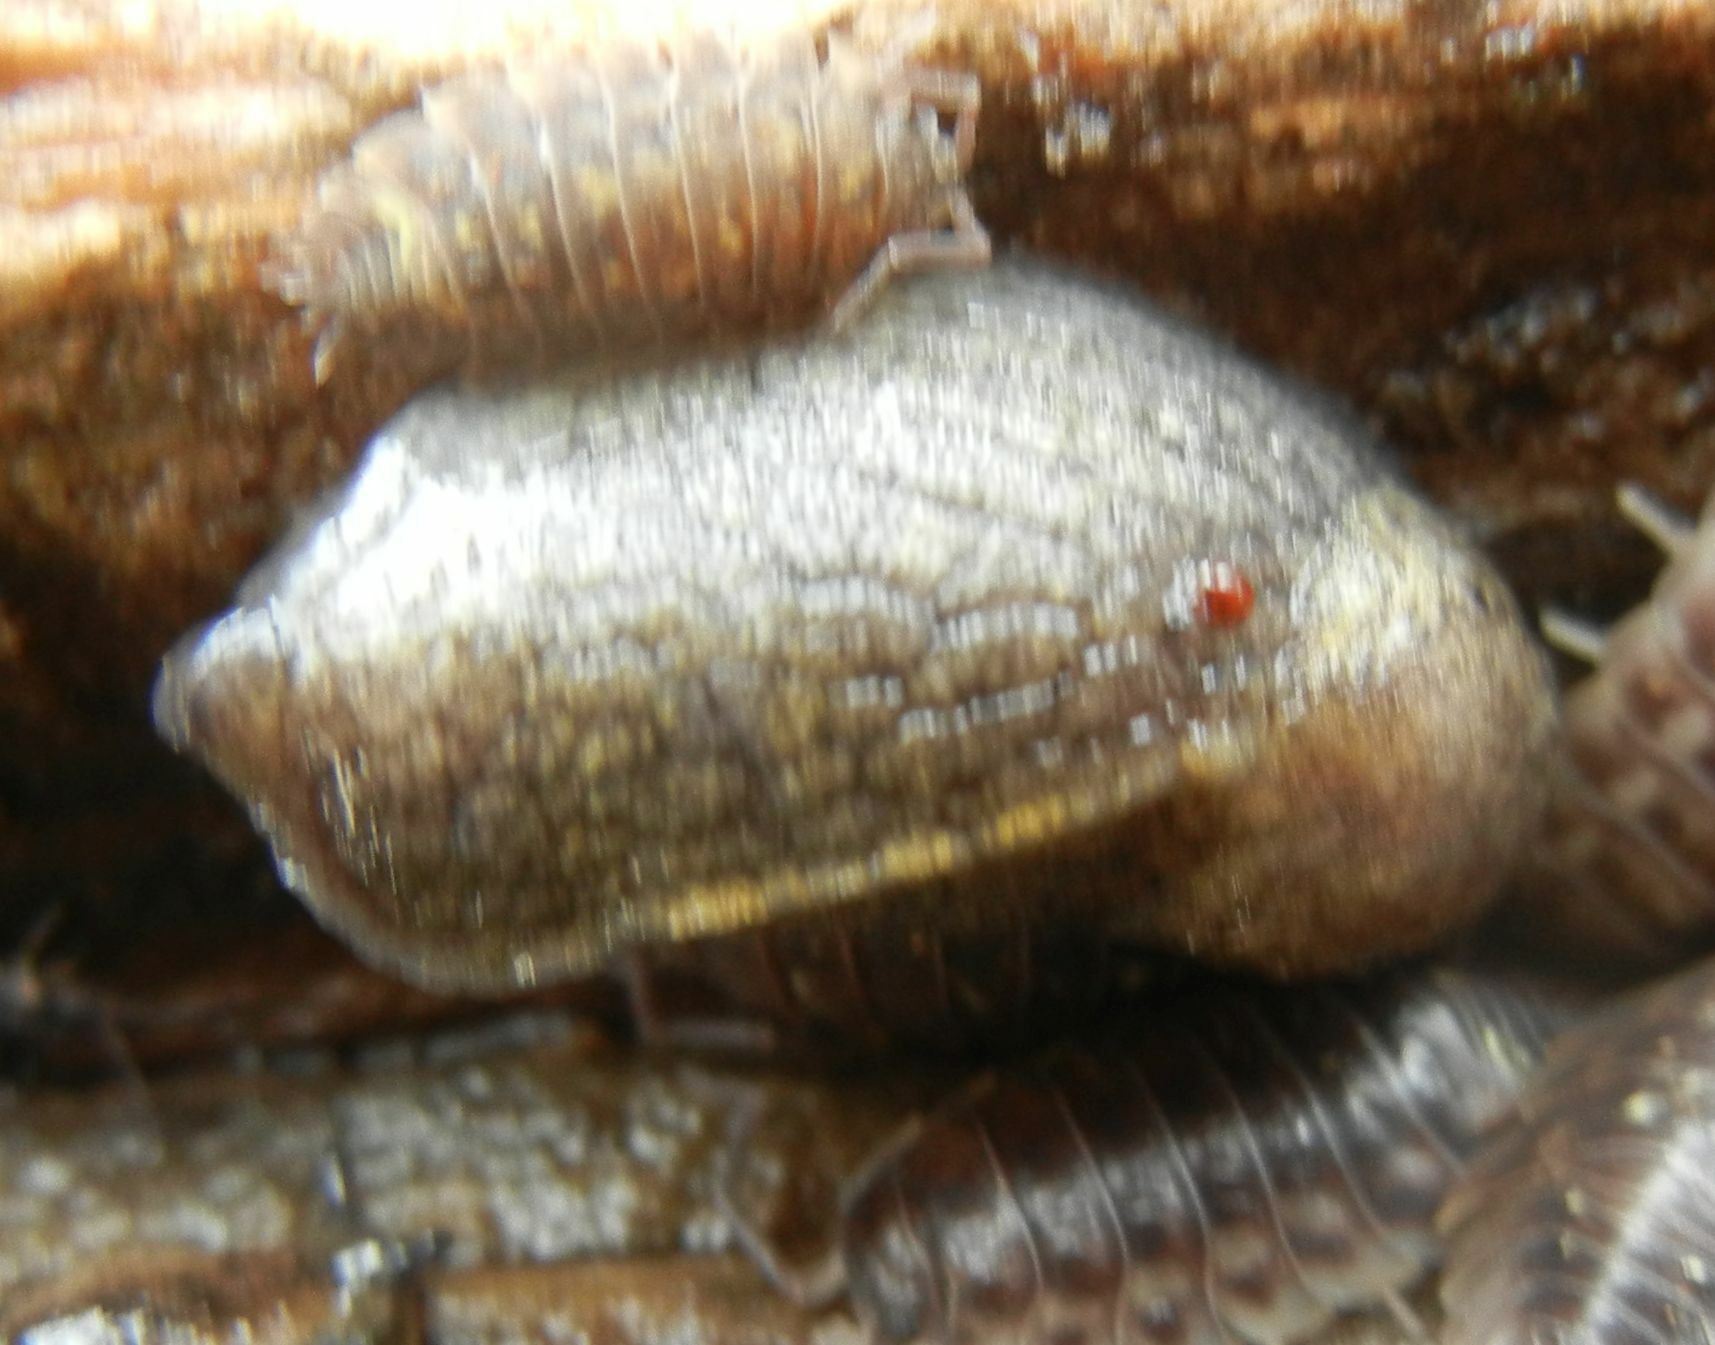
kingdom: Animalia
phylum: Mollusca
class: Gastropoda
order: Stylommatophora
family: Milacidae
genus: Tandonia
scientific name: Tandonia budapestensis
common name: Budapest slug
